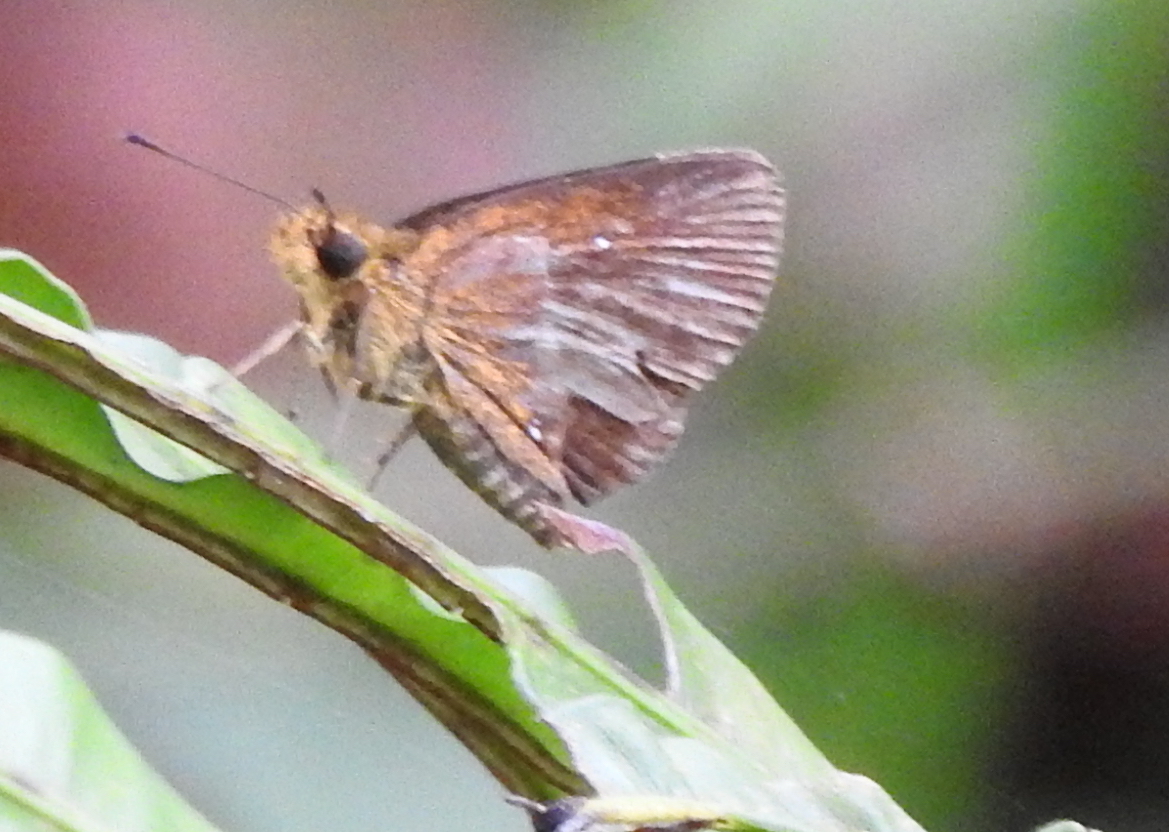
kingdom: Animalia
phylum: Arthropoda
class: Insecta
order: Lepidoptera
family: Hesperiidae
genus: Iambrix
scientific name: Iambrix salsala
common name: Chestnut bob
